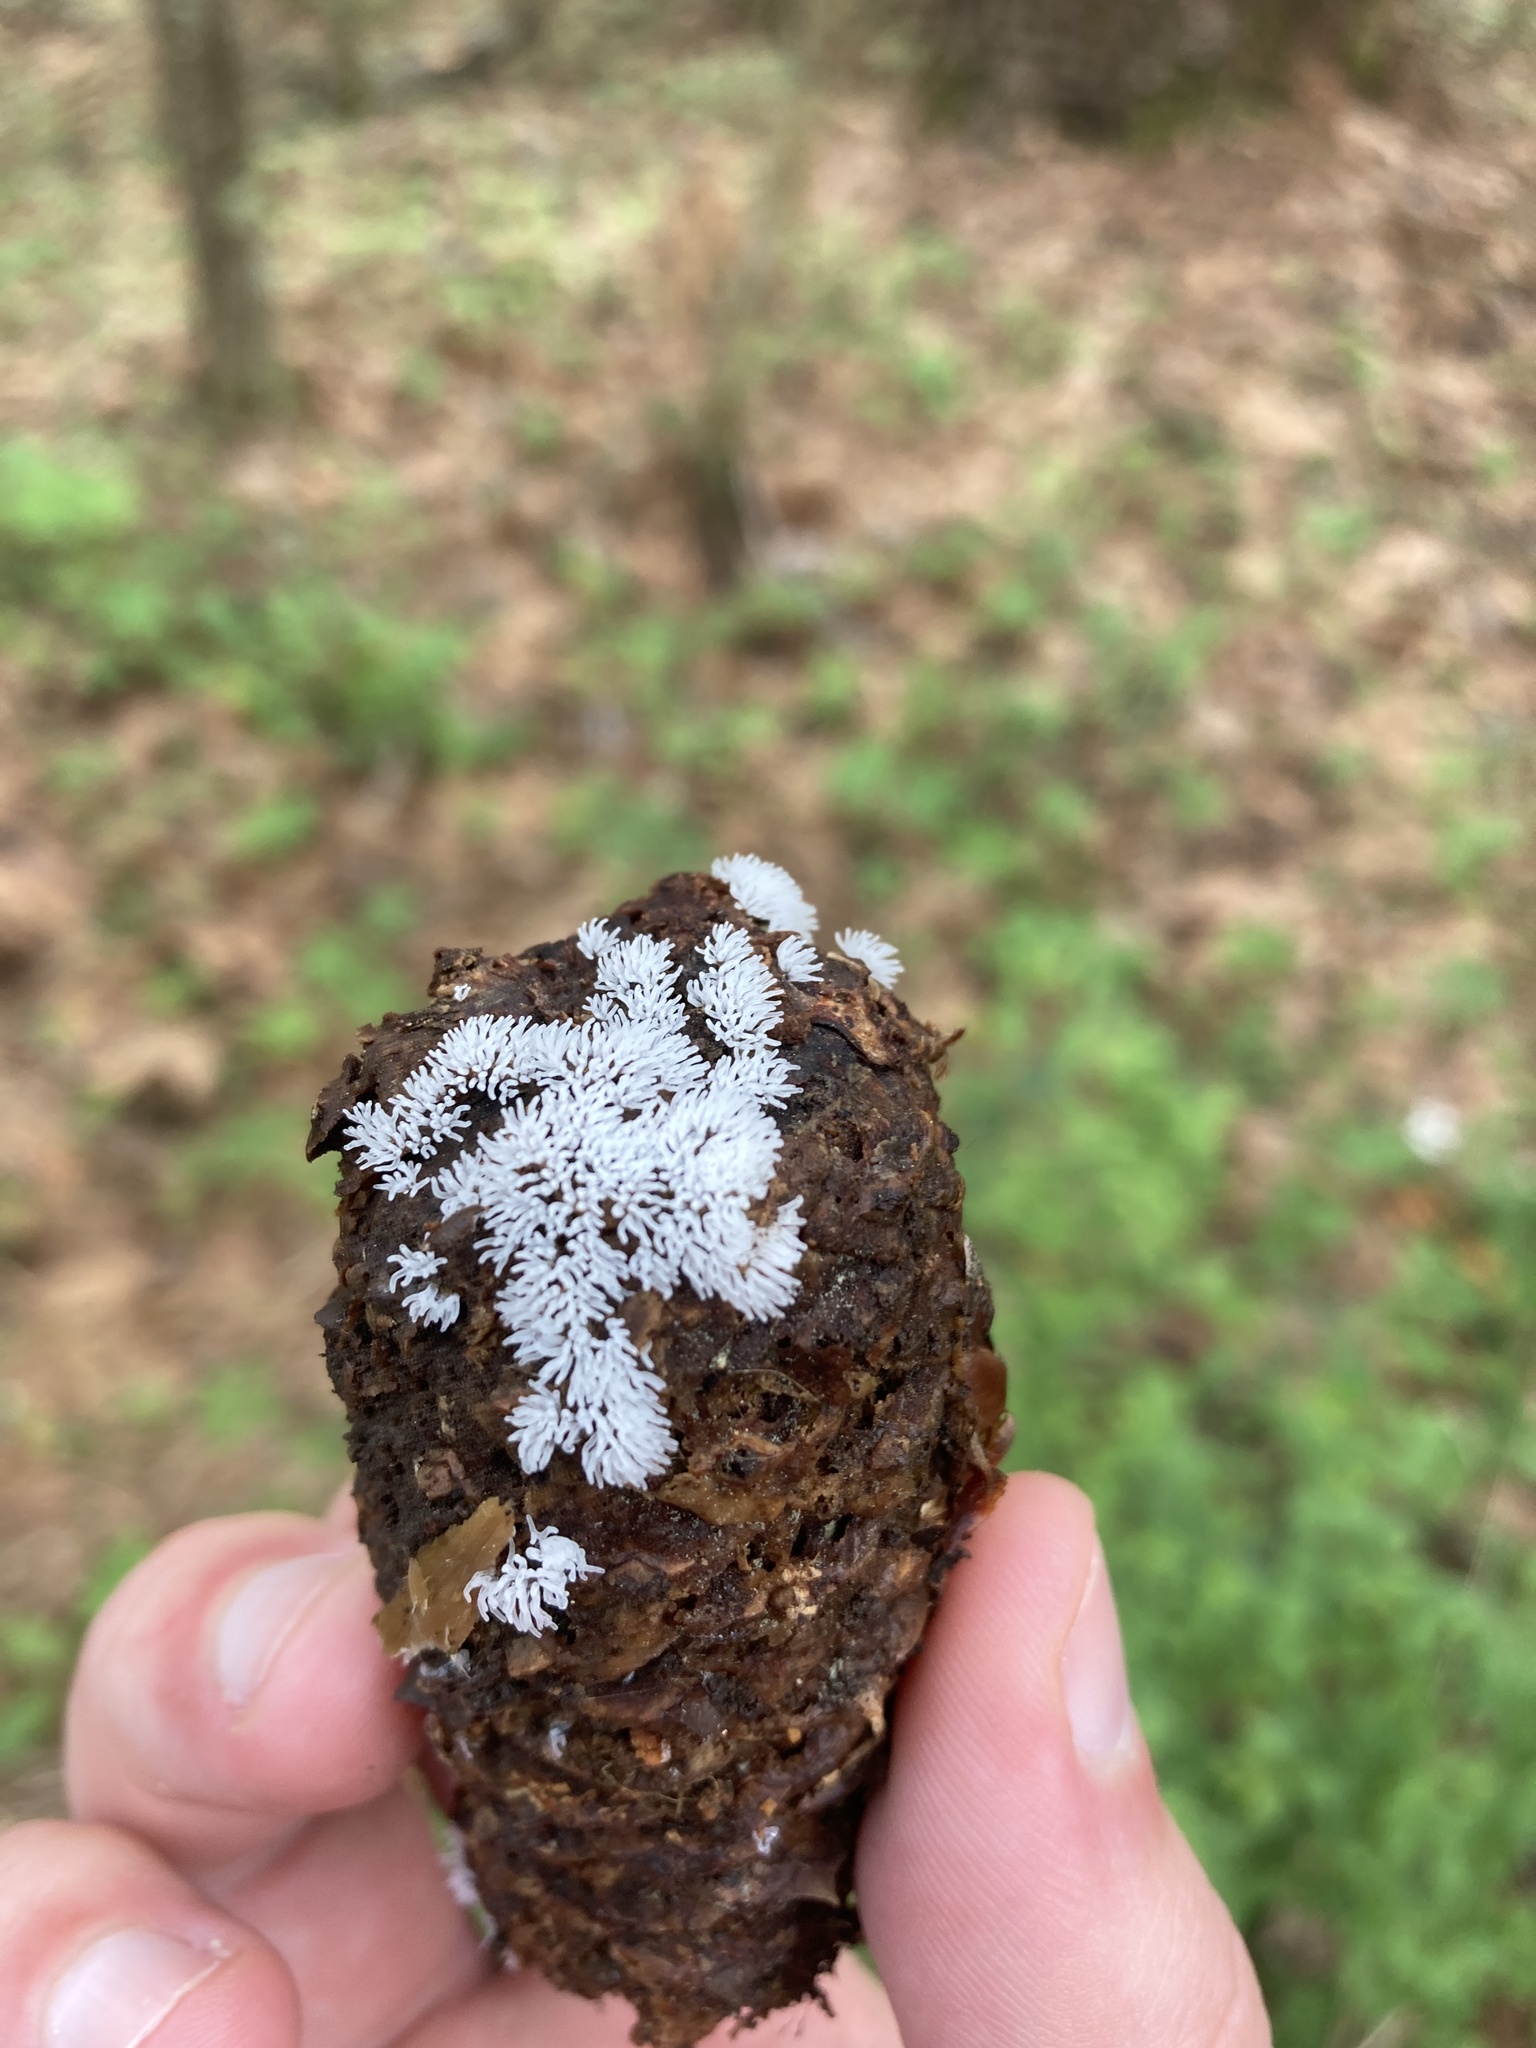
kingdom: Protozoa
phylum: Mycetozoa
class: Protosteliomycetes
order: Ceratiomyxales
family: Ceratiomyxaceae
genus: Ceratiomyxa
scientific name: Ceratiomyxa fruticulosa
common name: Honeycomb coral slime mold
